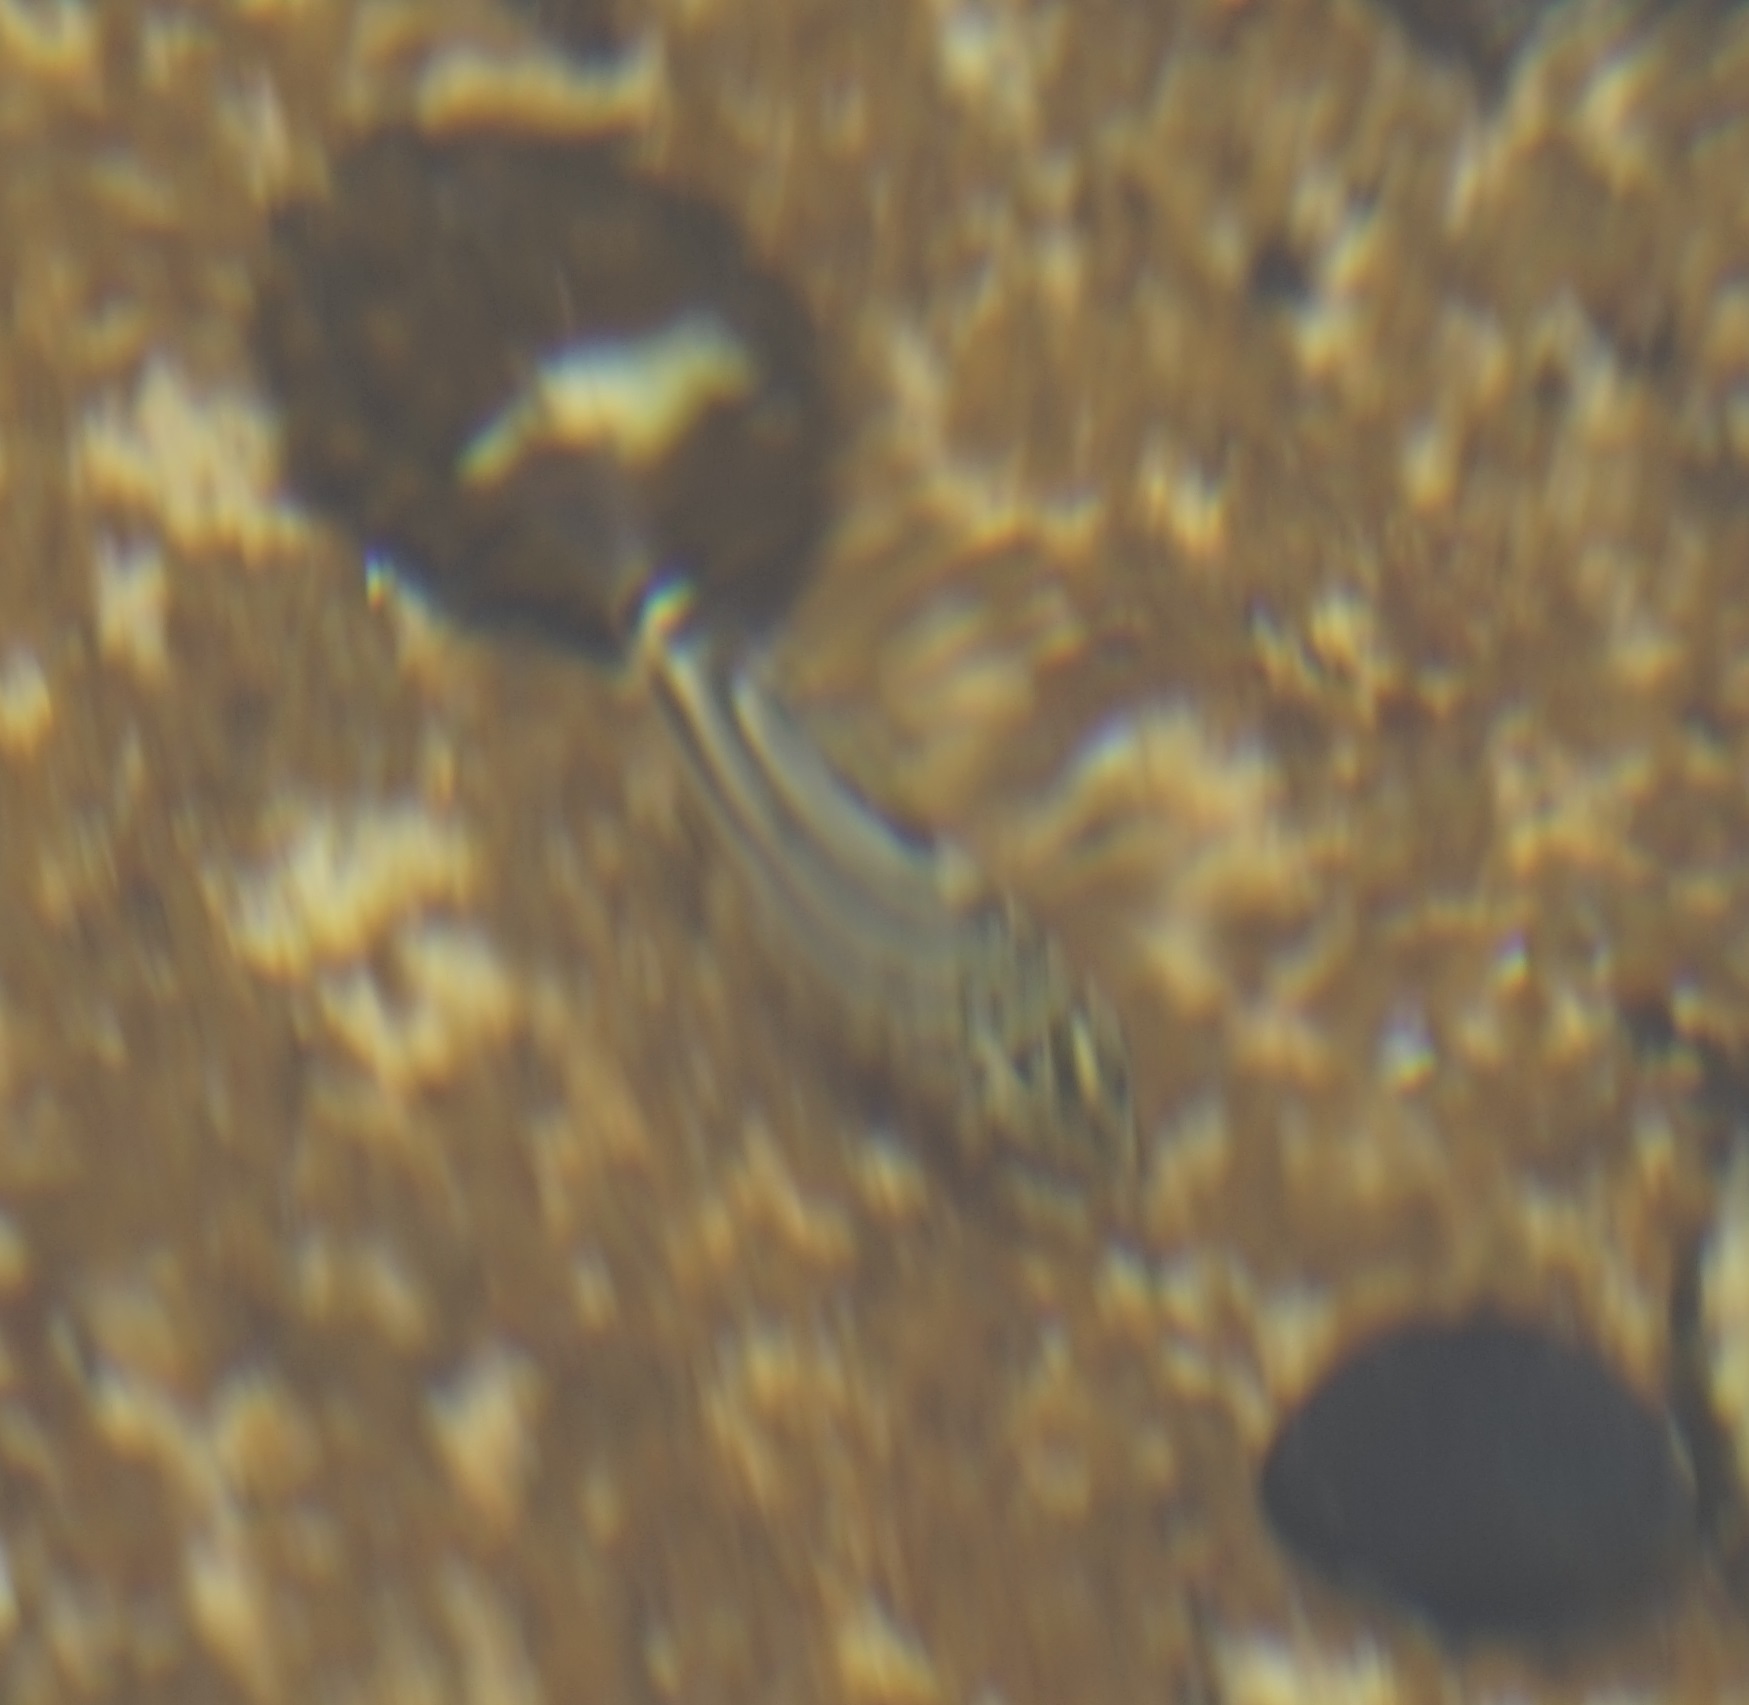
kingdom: Animalia
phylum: Chordata
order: Perciformes
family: Kyphosidae
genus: Microcanthus
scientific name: Microcanthus joyceae
